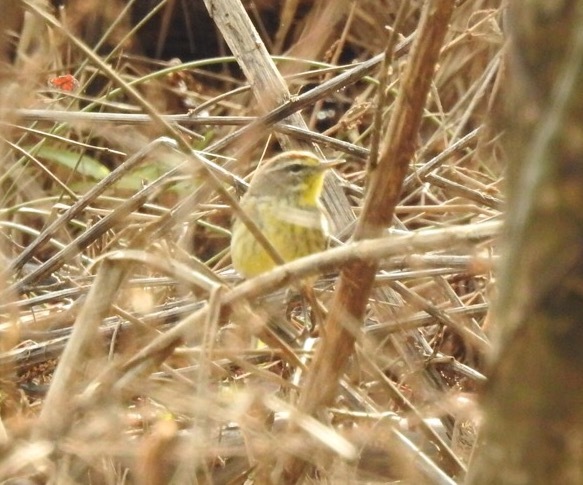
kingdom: Animalia
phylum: Chordata
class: Aves
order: Passeriformes
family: Parulidae
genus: Setophaga
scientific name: Setophaga palmarum
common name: Palm warbler
